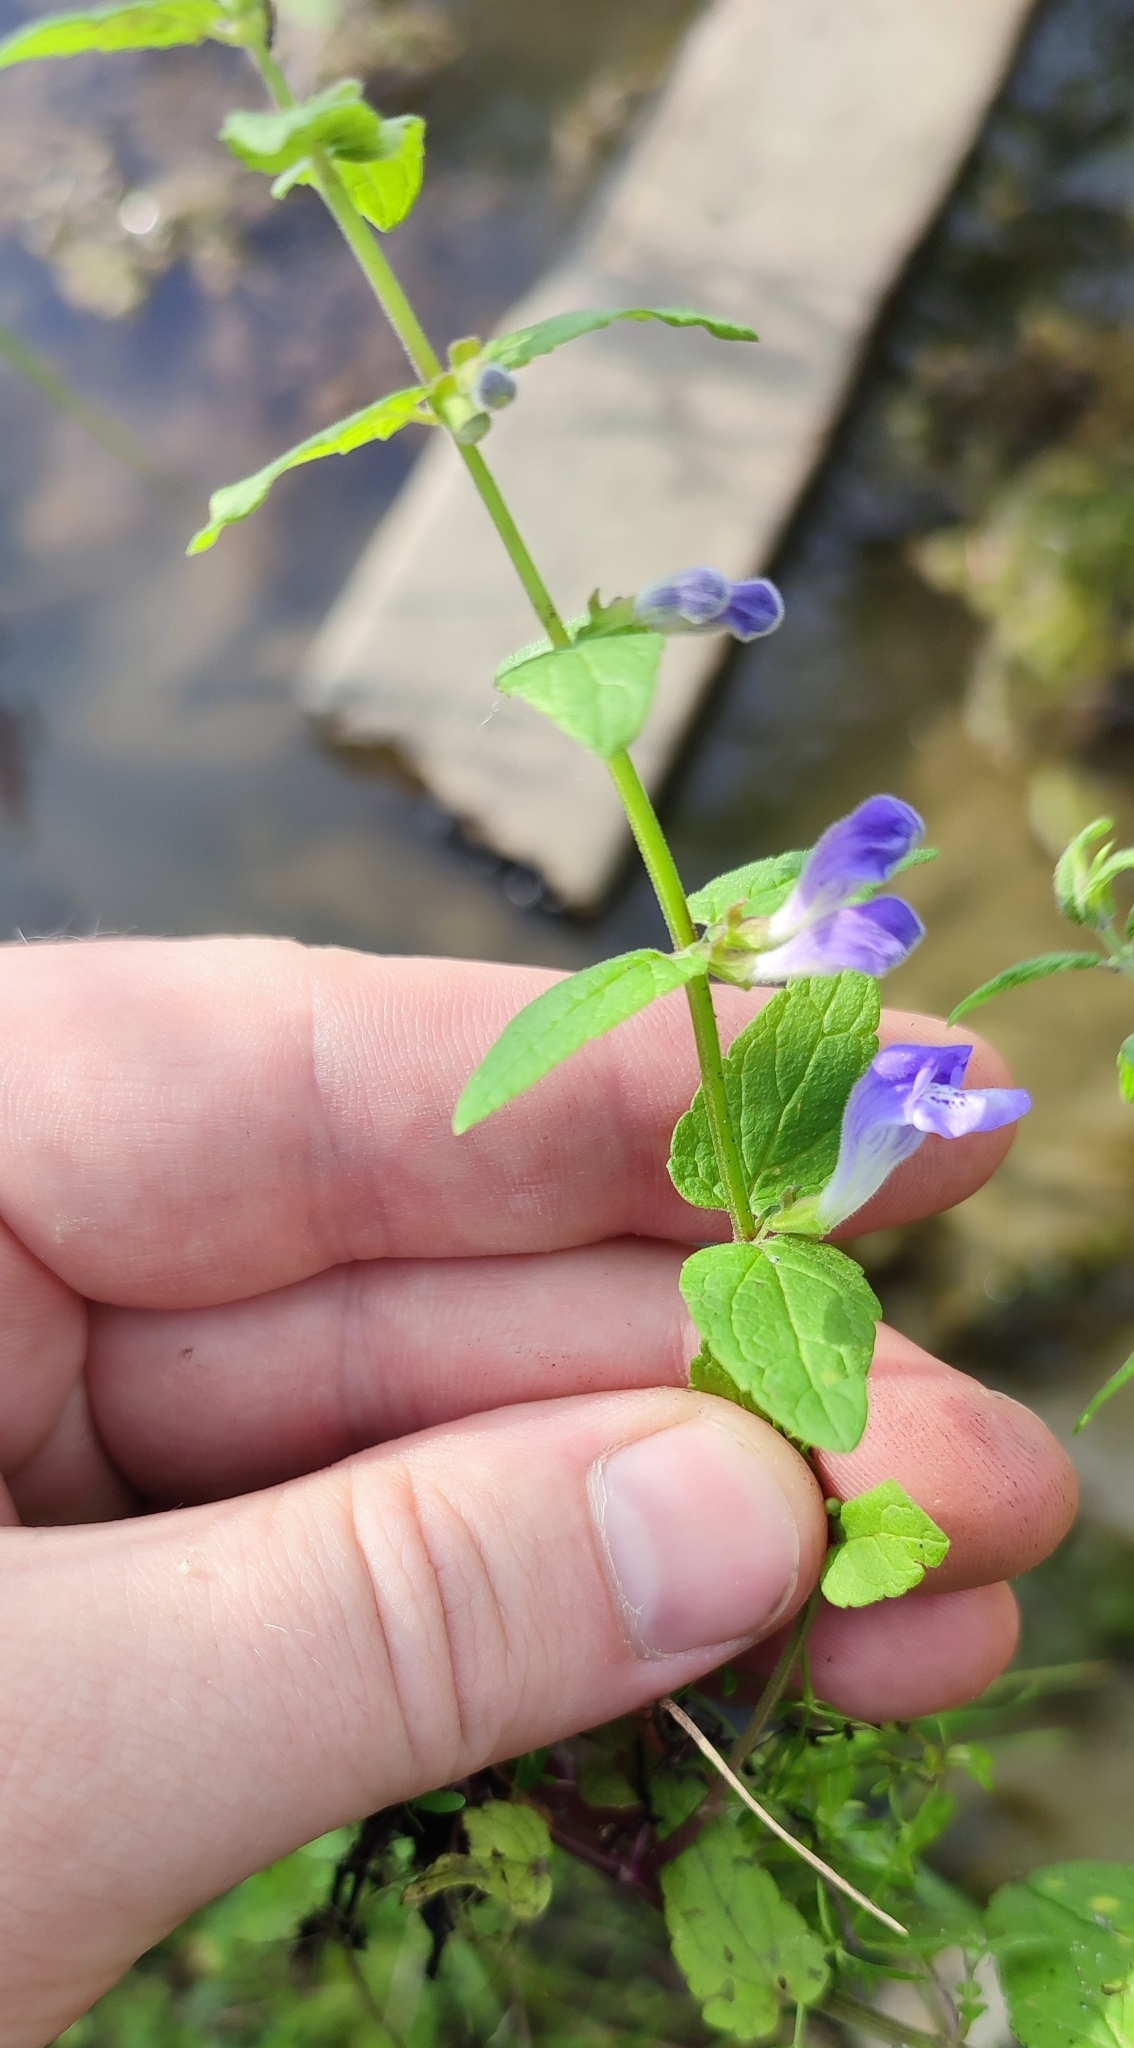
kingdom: Plantae
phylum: Tracheophyta
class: Magnoliopsida
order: Lamiales
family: Lamiaceae
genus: Scutellaria
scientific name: Scutellaria galericulata
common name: Skullcap
